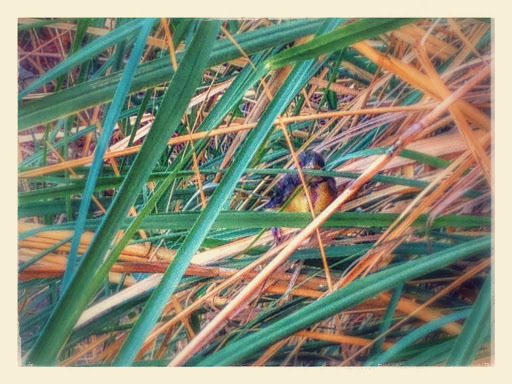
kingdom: Animalia
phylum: Chordata
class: Aves
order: Passeriformes
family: Fringillidae
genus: Spinus
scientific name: Spinus psaltria
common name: Lesser goldfinch
